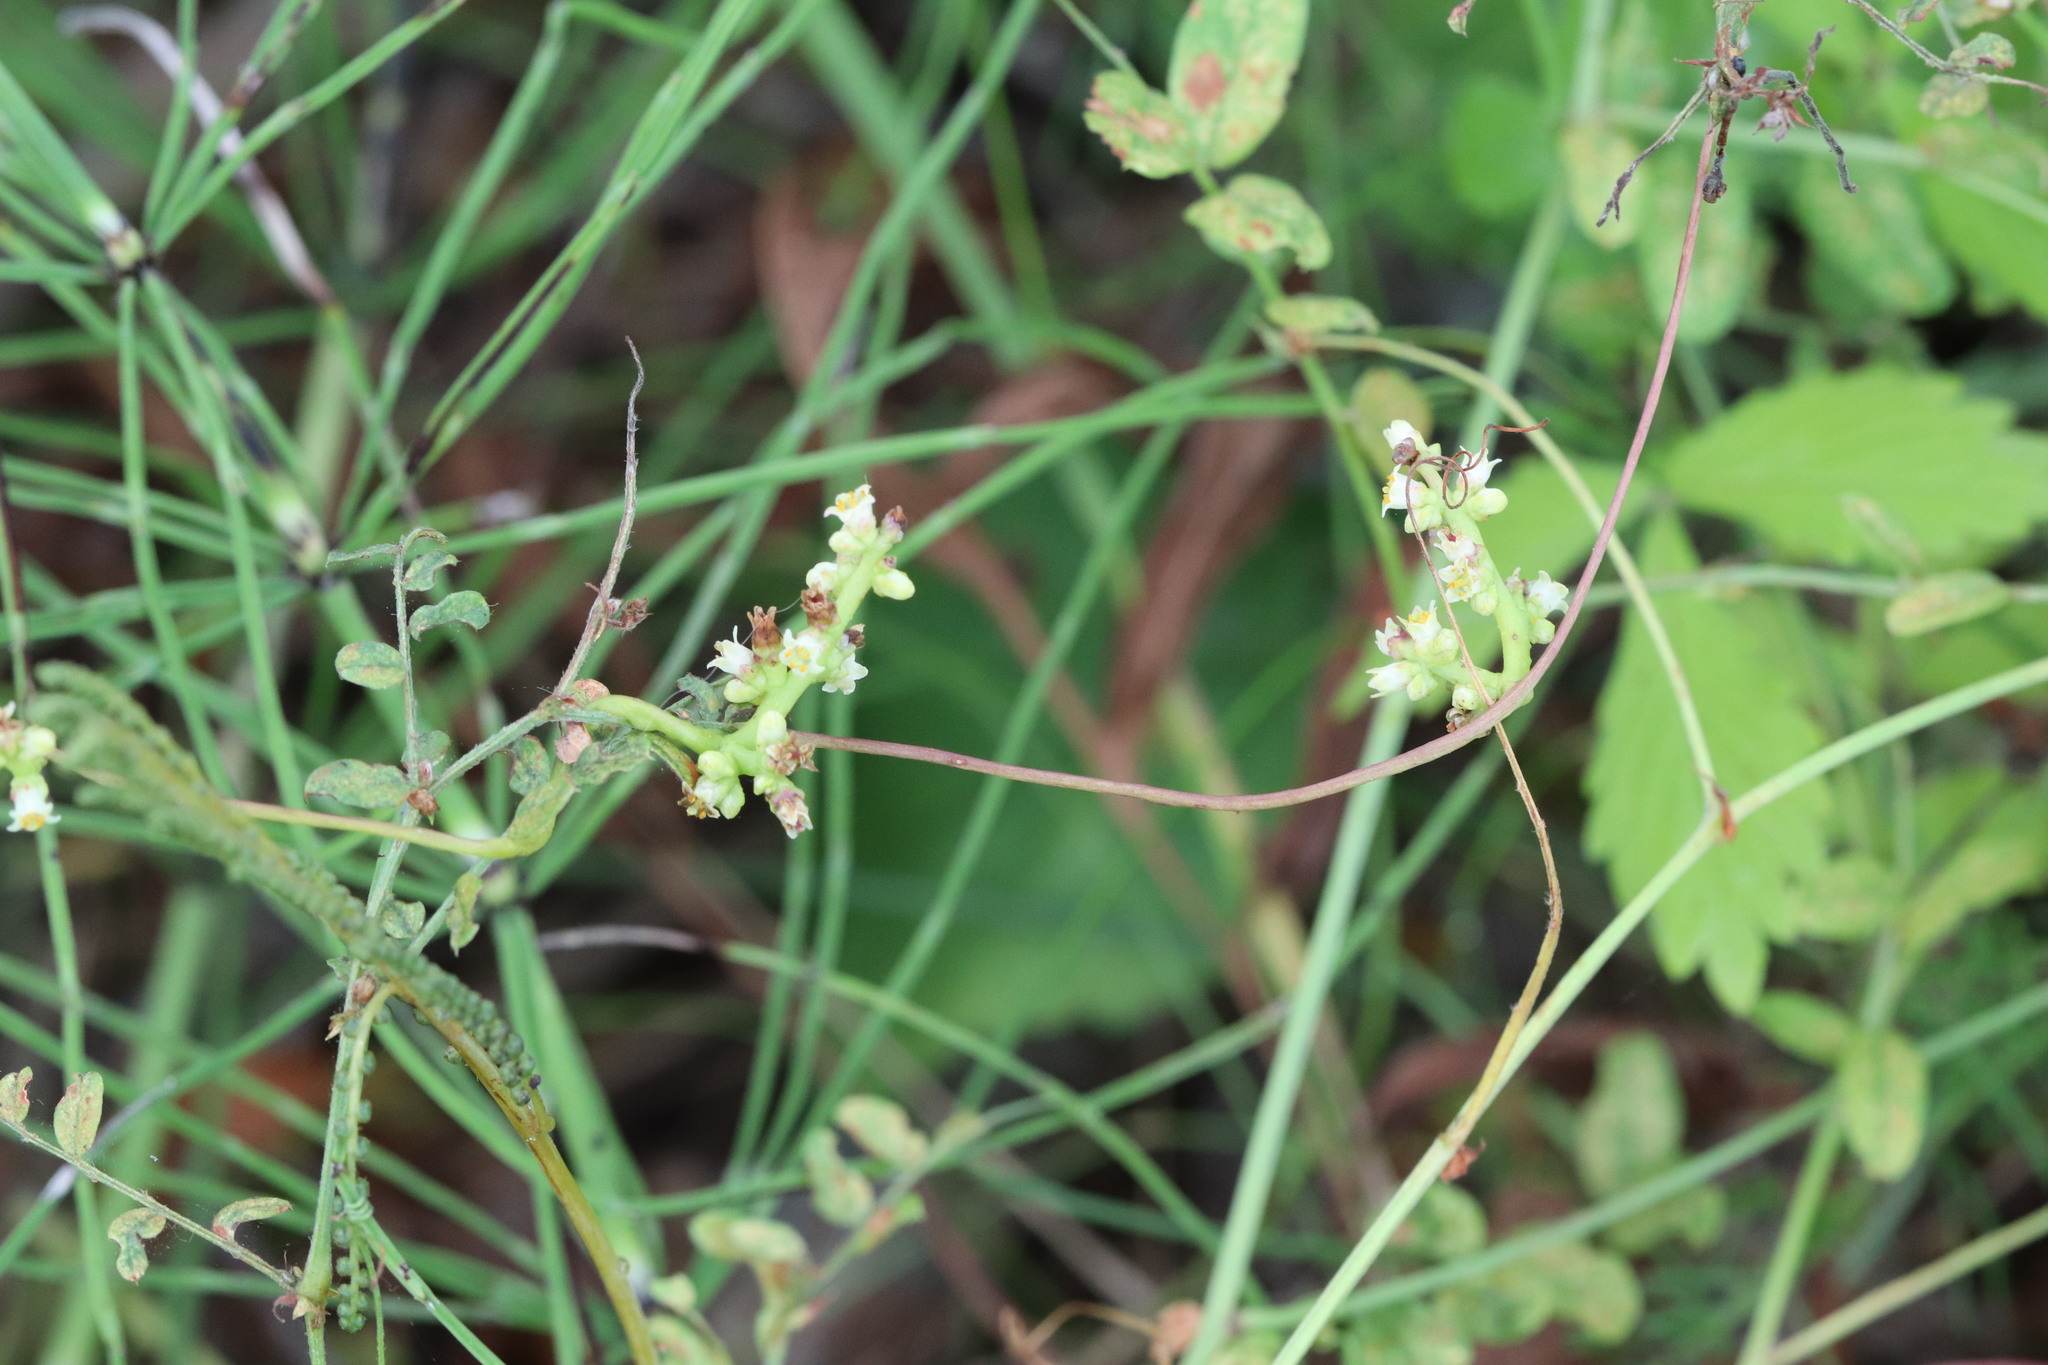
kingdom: Plantae
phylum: Tracheophyta
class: Magnoliopsida
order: Solanales
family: Convolvulaceae
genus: Cuscuta
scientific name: Cuscuta japonica
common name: Japanese dodder
